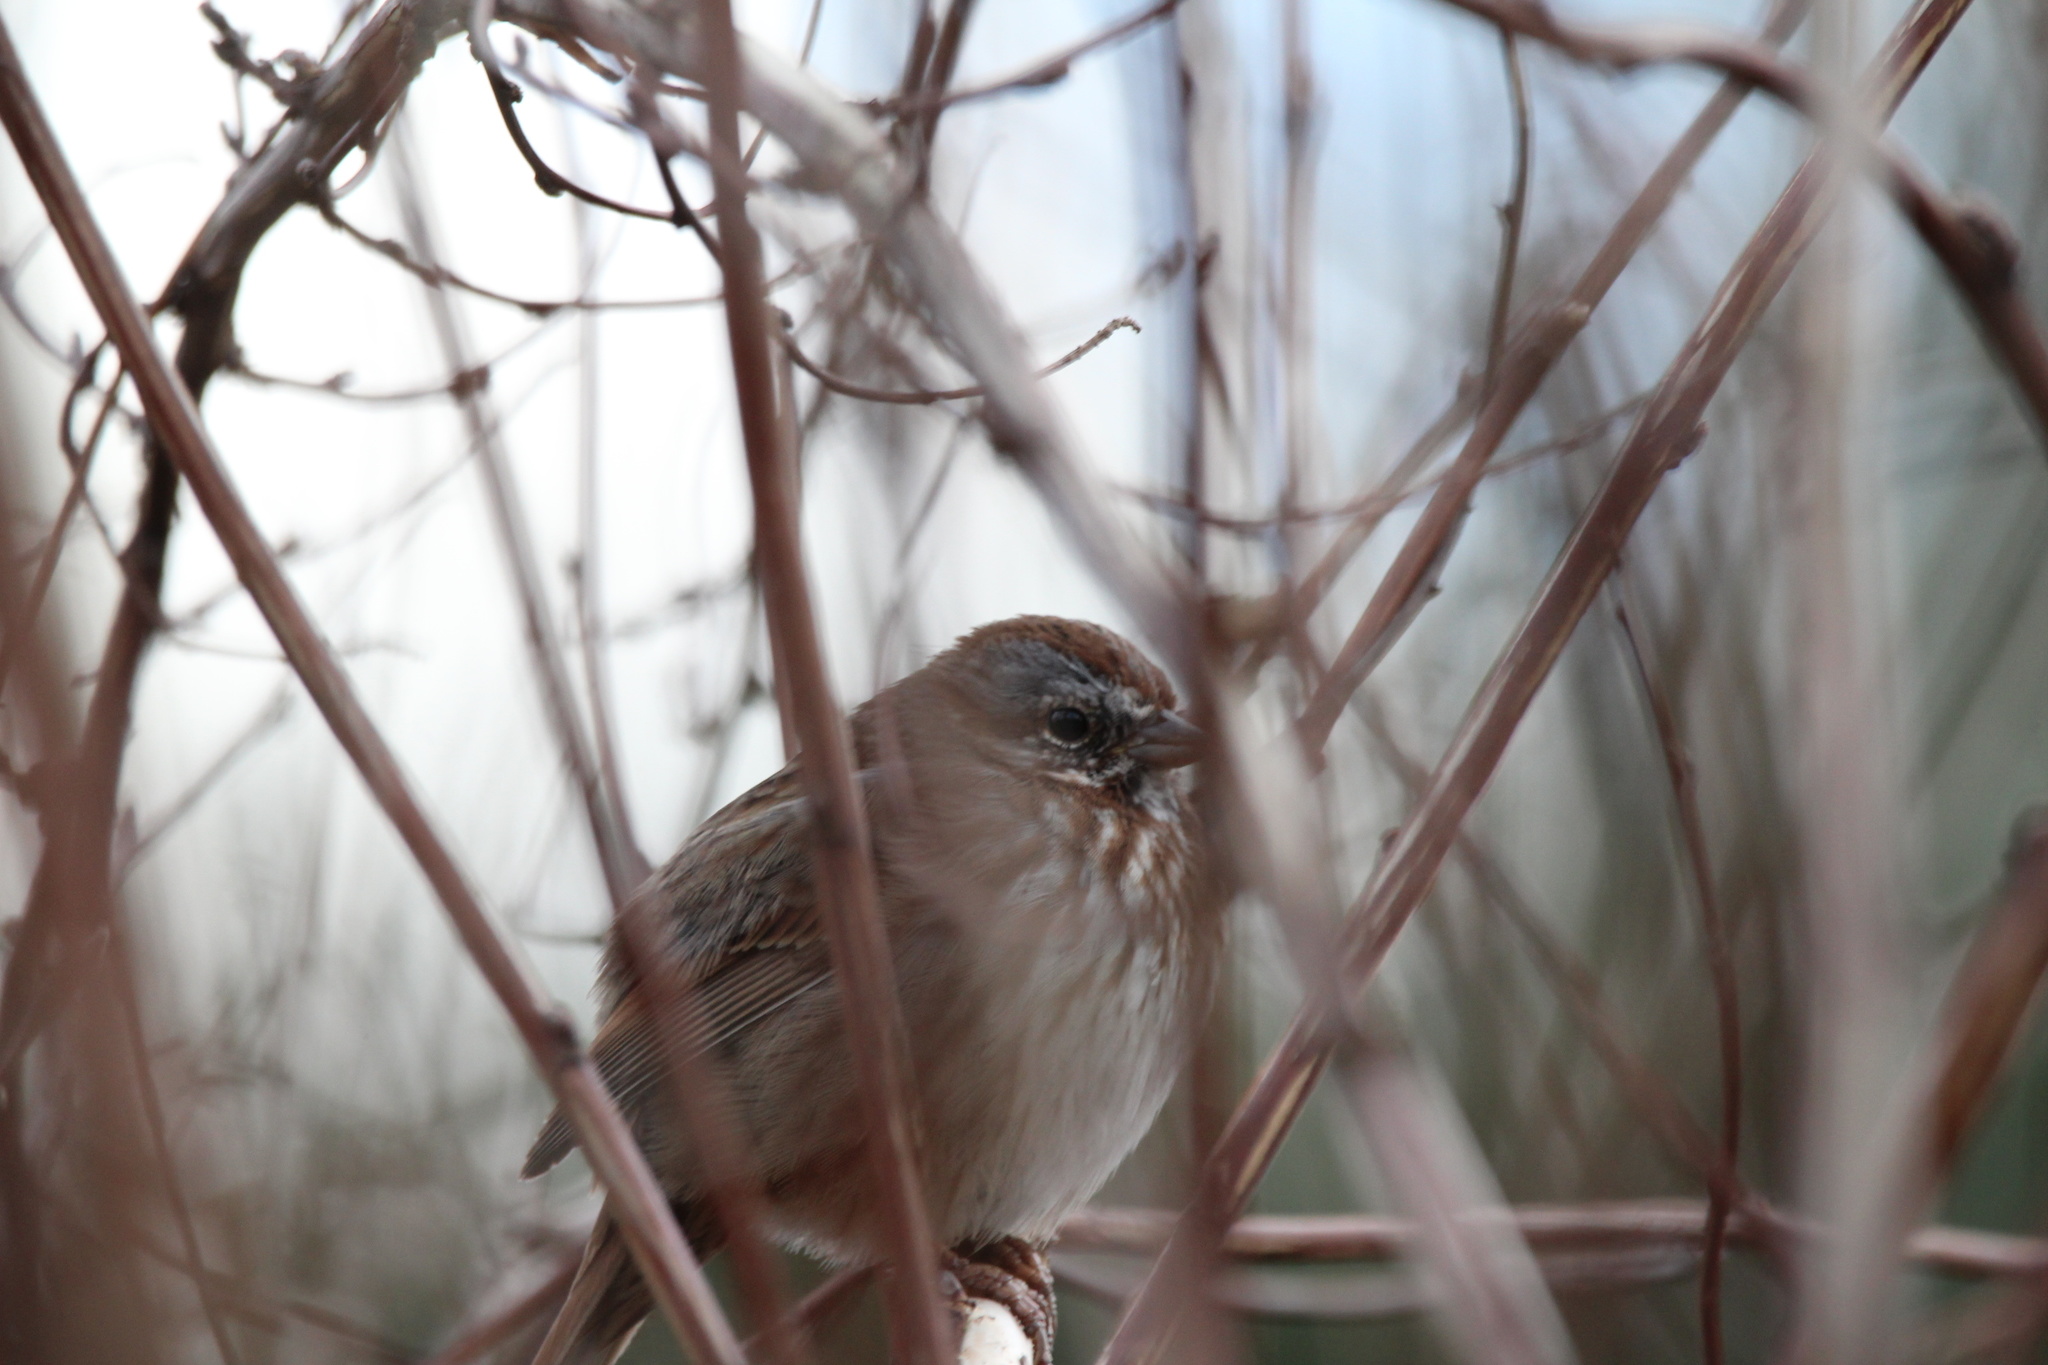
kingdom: Animalia
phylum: Chordata
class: Aves
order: Passeriformes
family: Passerellidae
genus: Melospiza
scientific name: Melospiza melodia
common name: Song sparrow
